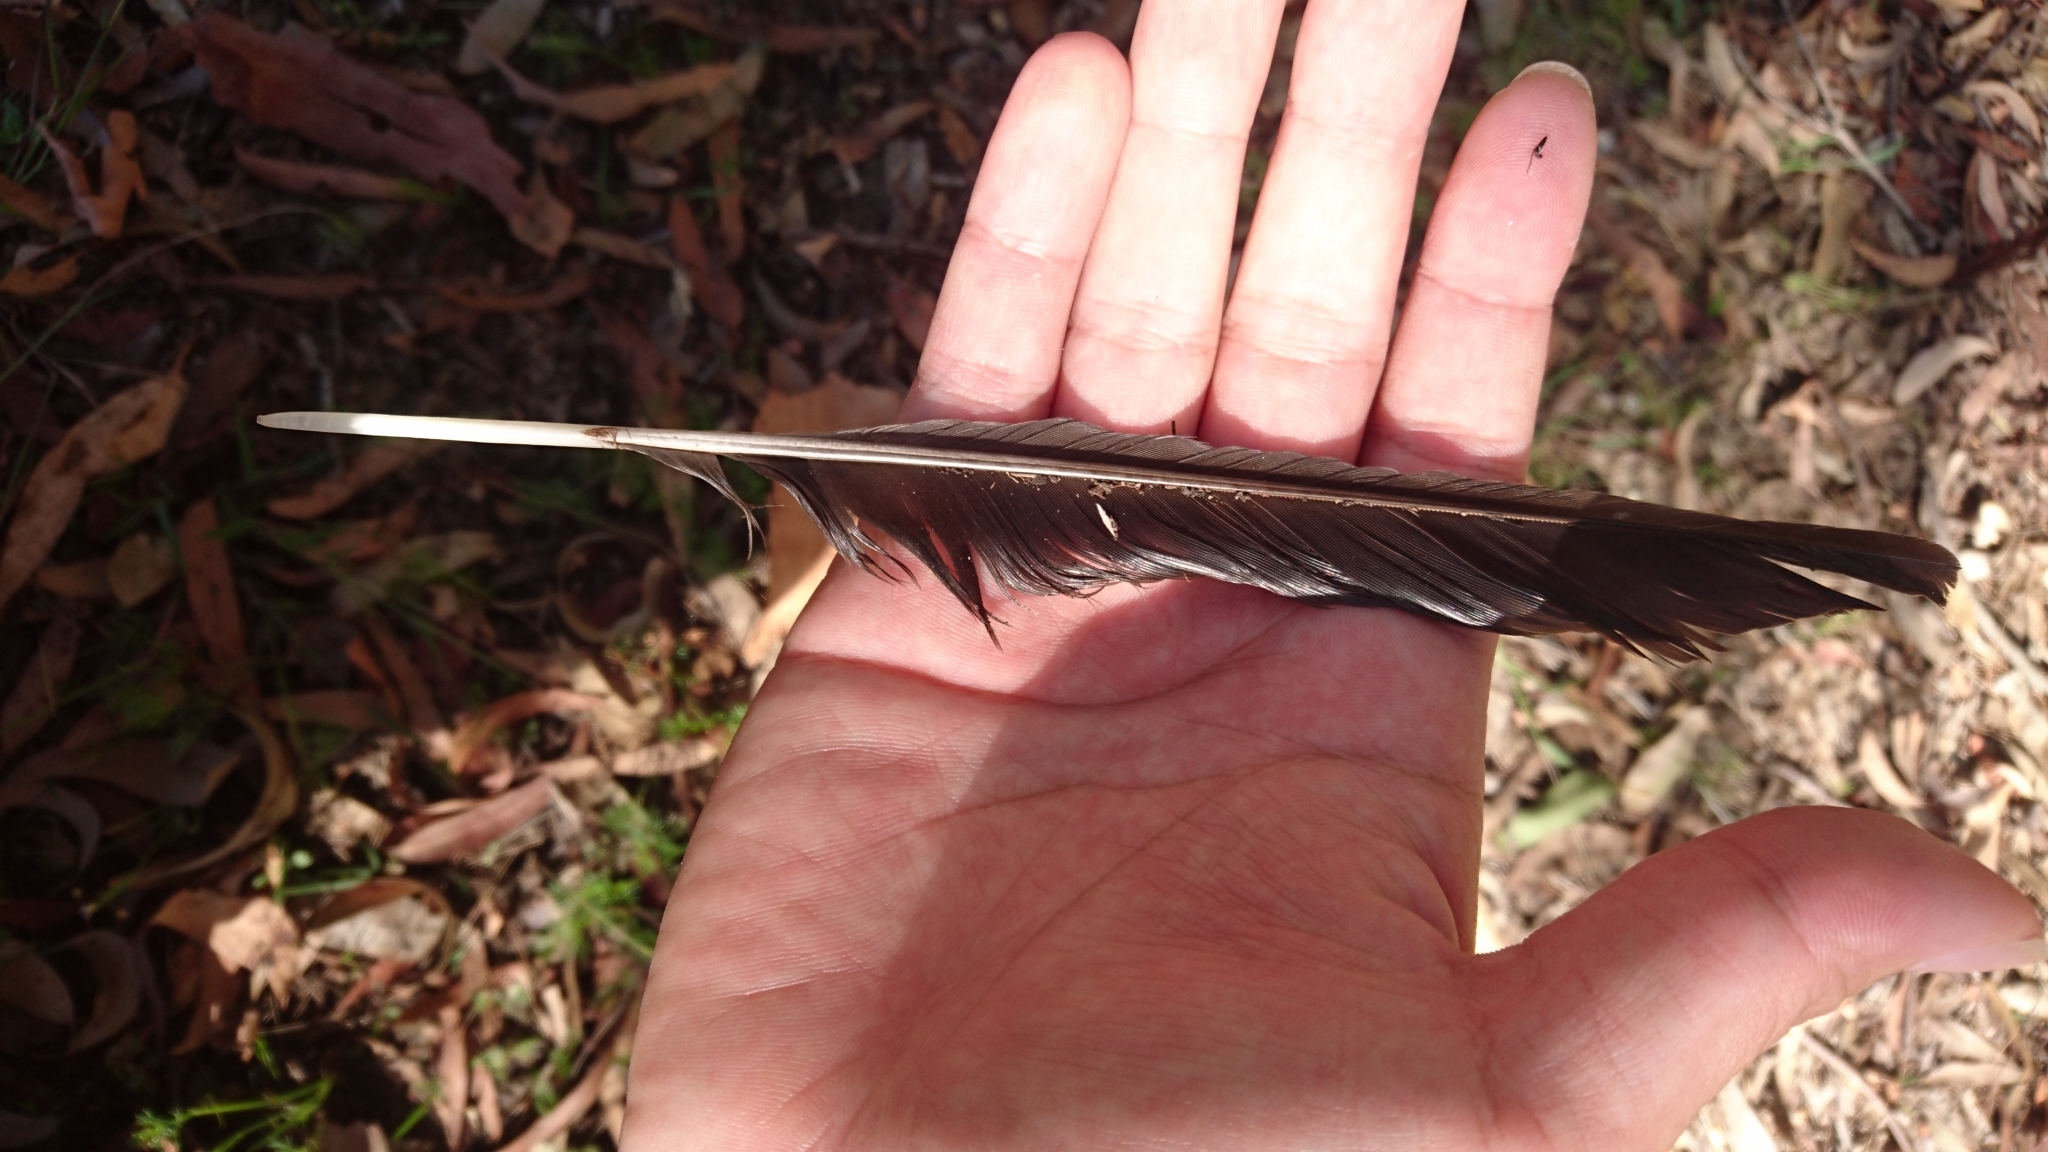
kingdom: Animalia
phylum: Chordata
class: Aves
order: Passeriformes
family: Cracticidae
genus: Gymnorhina
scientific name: Gymnorhina tibicen
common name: Australian magpie
